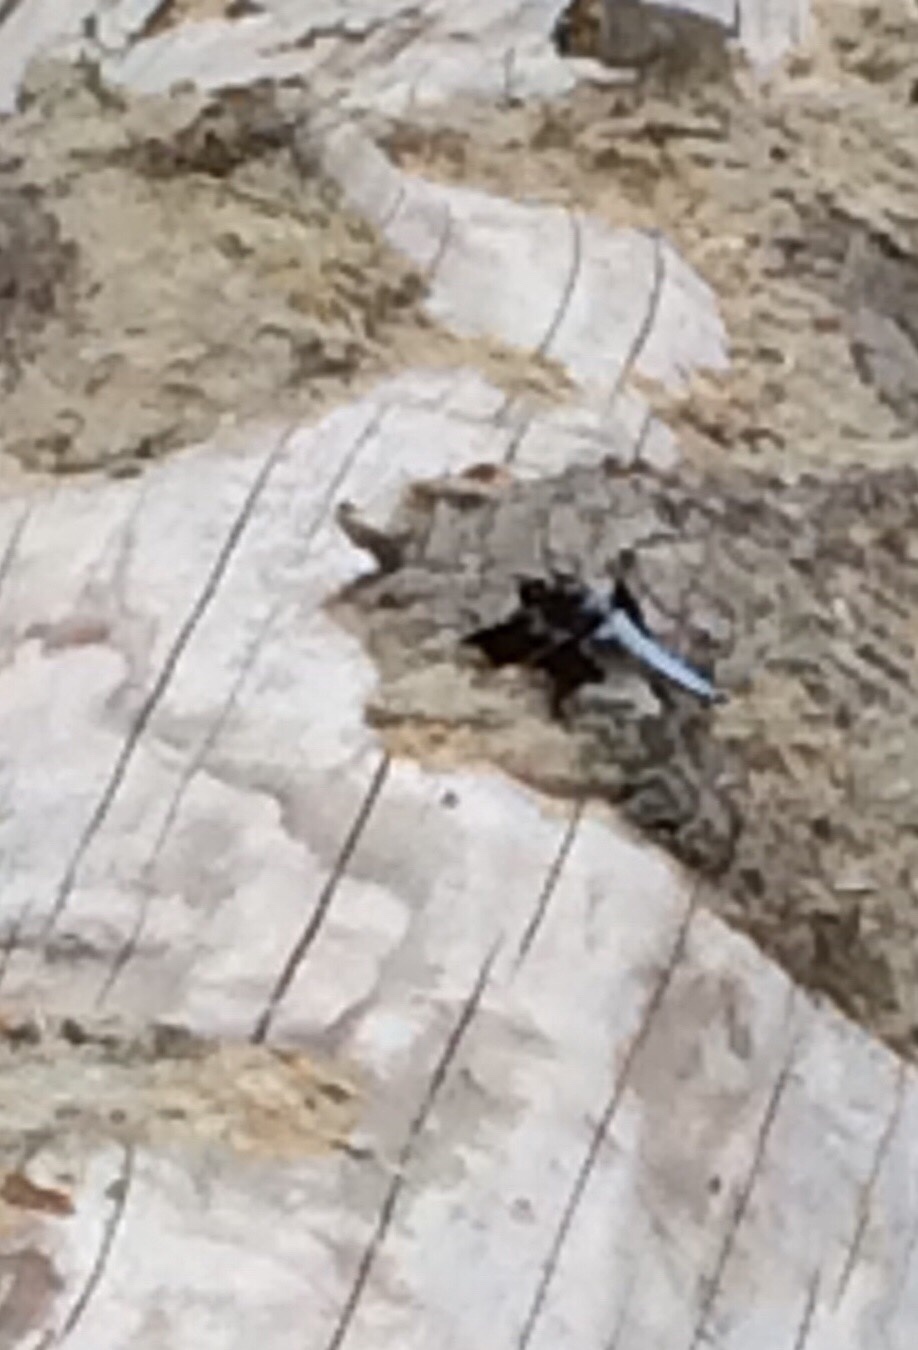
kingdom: Animalia
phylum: Arthropoda
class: Insecta
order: Odonata
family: Libellulidae
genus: Plathemis
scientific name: Plathemis lydia
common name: Common whitetail
